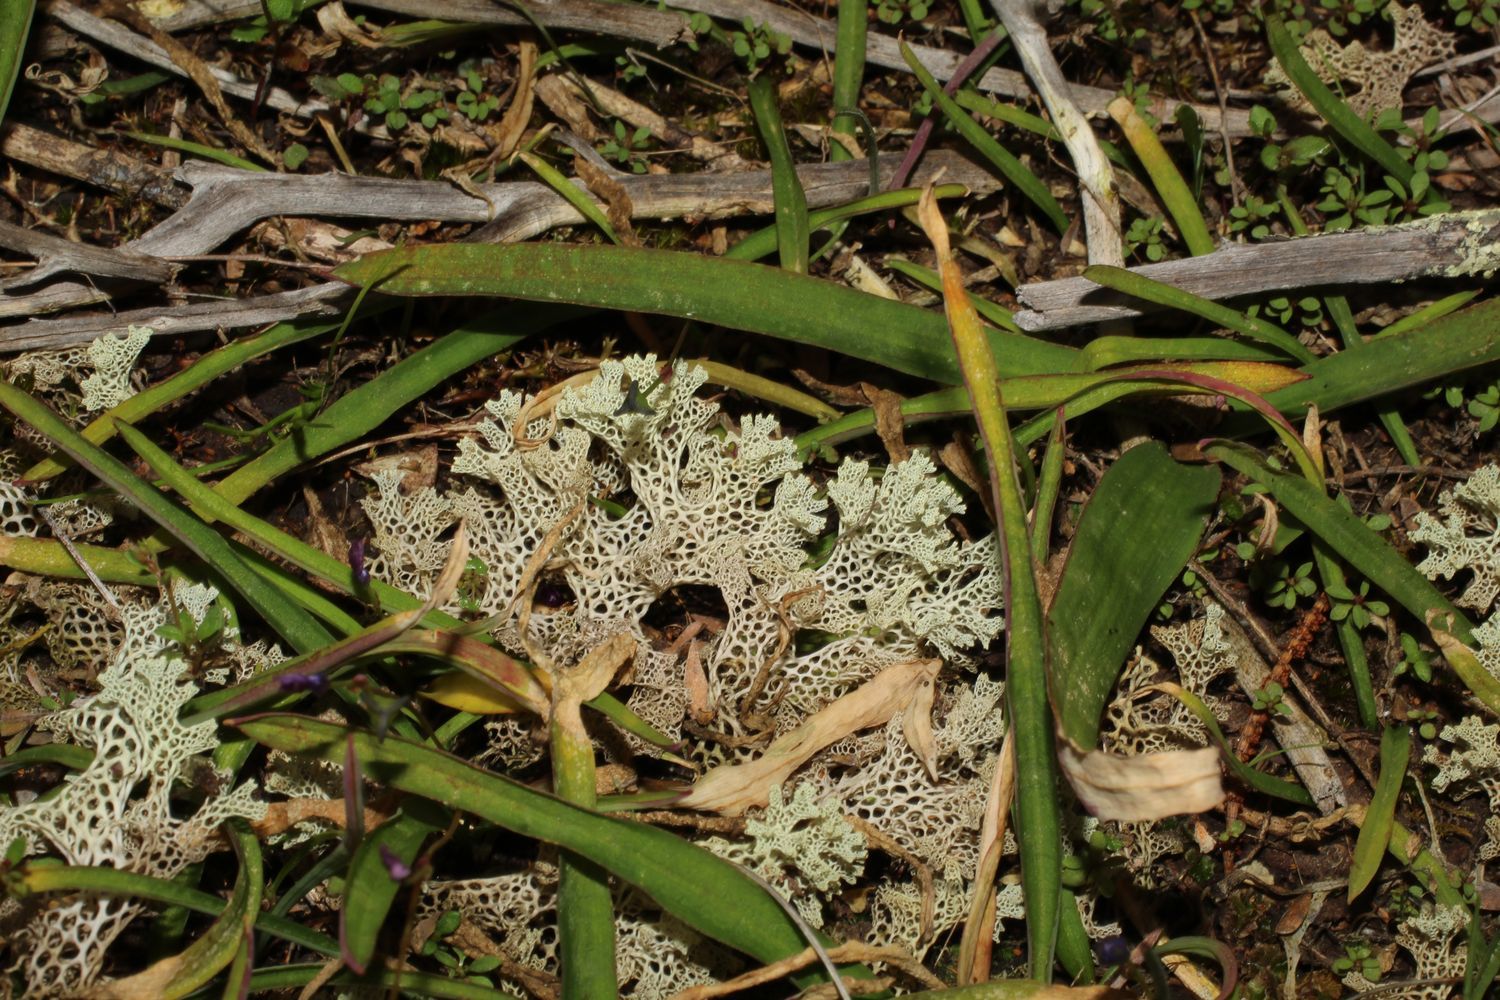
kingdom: Fungi
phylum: Ascomycota
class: Lecanoromycetes
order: Lecanorales
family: Cladoniaceae
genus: Pulchrocladia
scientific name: Pulchrocladia ferdinandii
